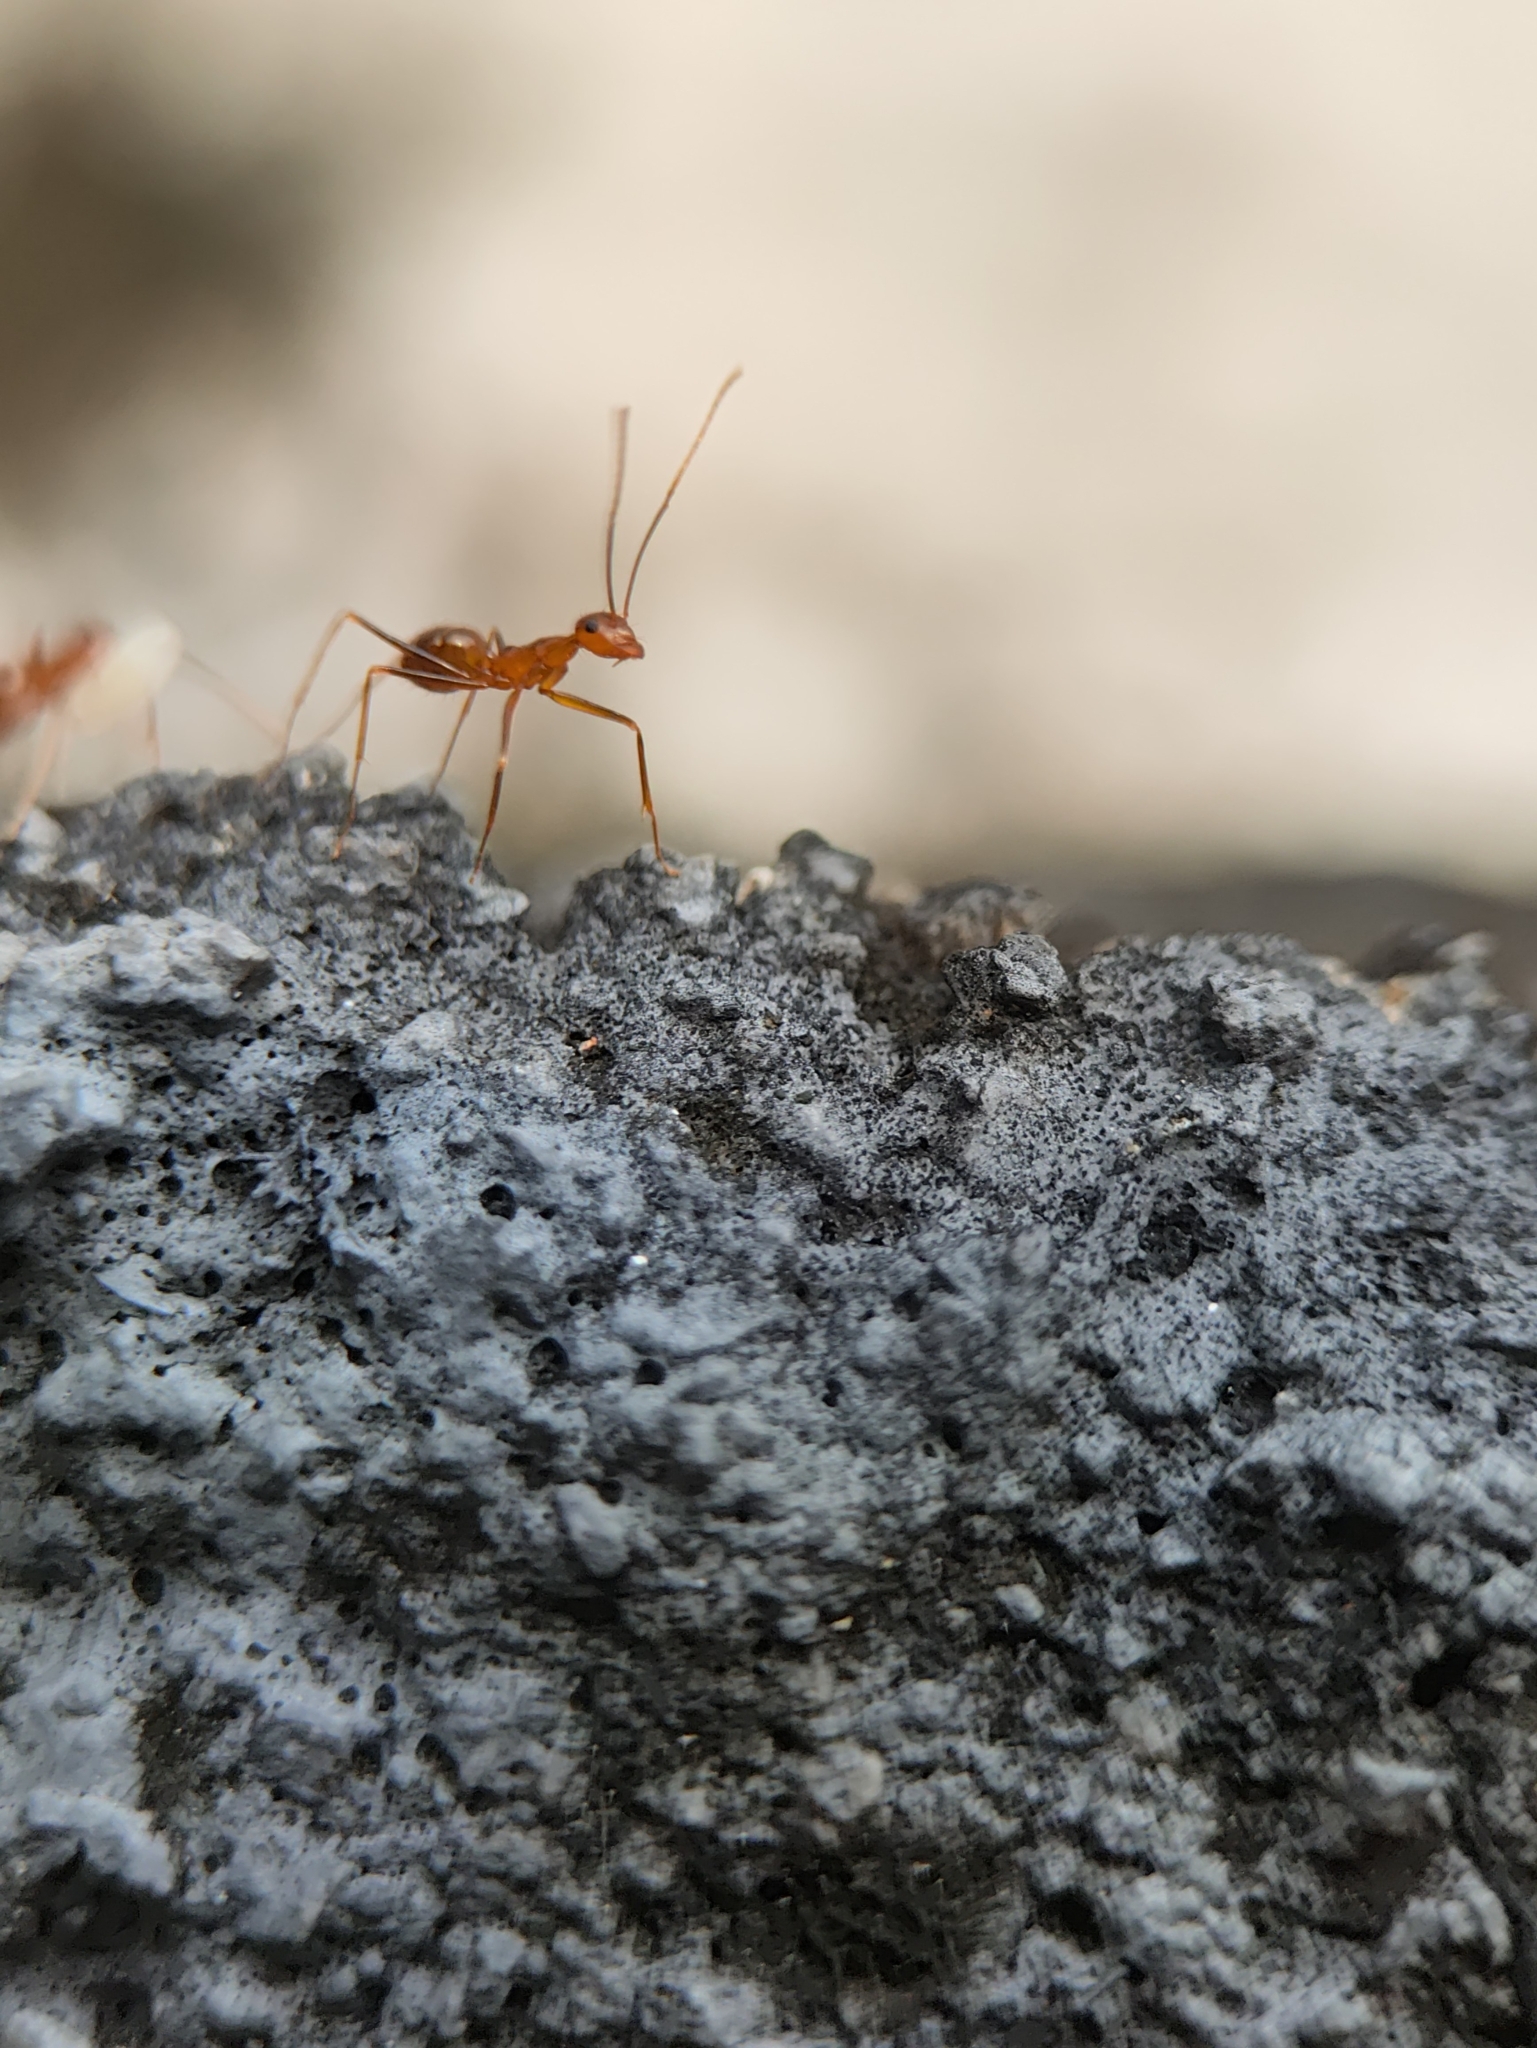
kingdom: Animalia
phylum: Arthropoda
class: Insecta
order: Hymenoptera
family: Formicidae
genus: Anoplolepis
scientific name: Anoplolepis gracilipes
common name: Ant
